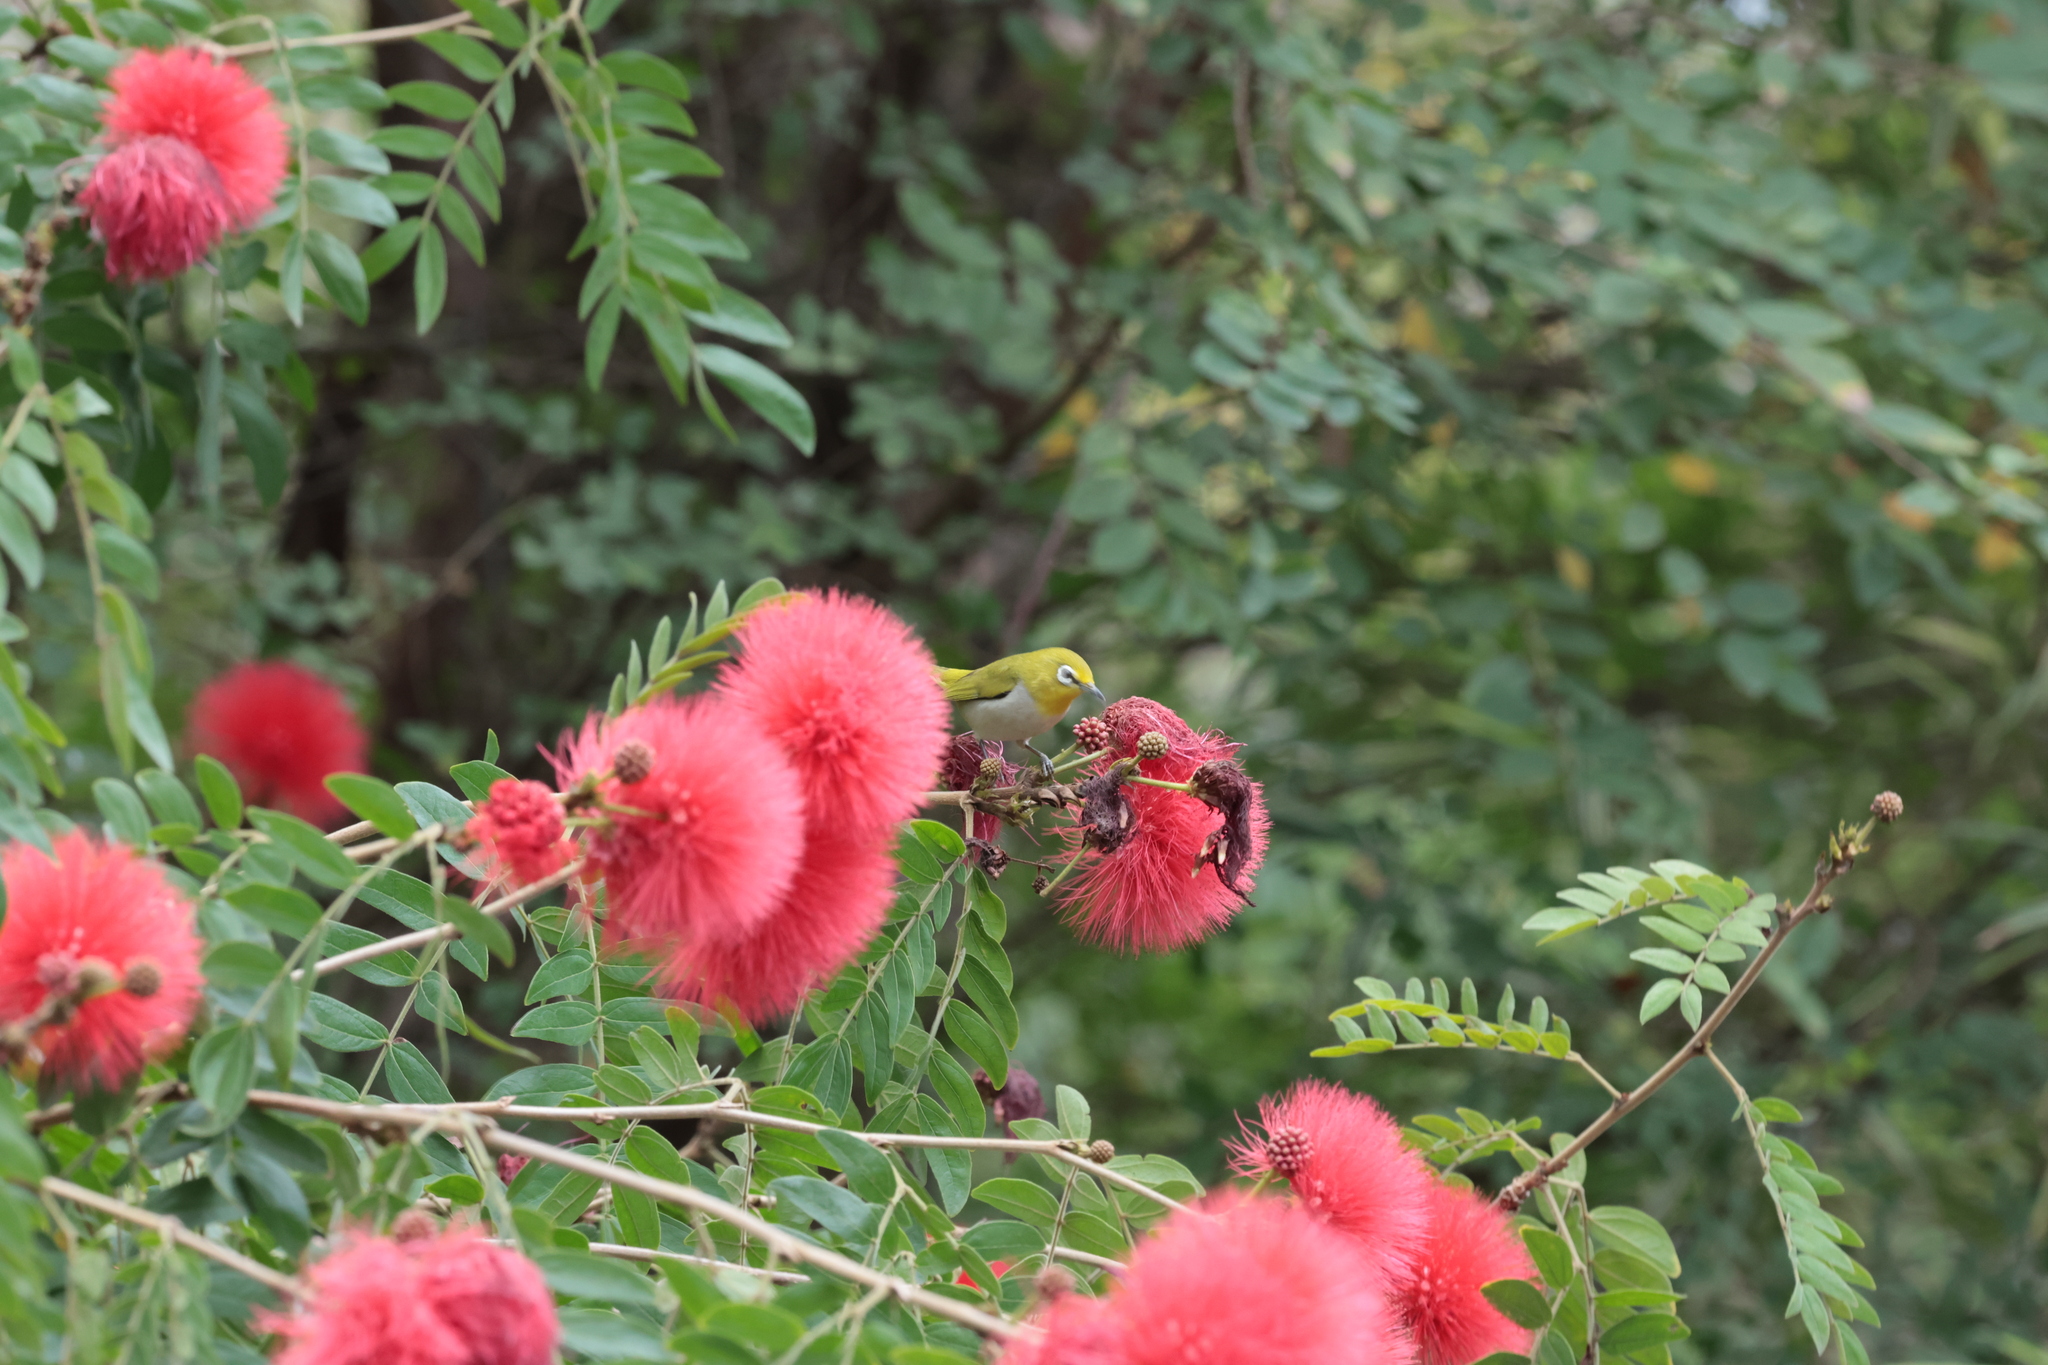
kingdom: Animalia
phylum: Chordata
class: Aves
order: Passeriformes
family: Zosteropidae
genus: Zosterops
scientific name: Zosterops simplex
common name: Swinhoe's white-eye
